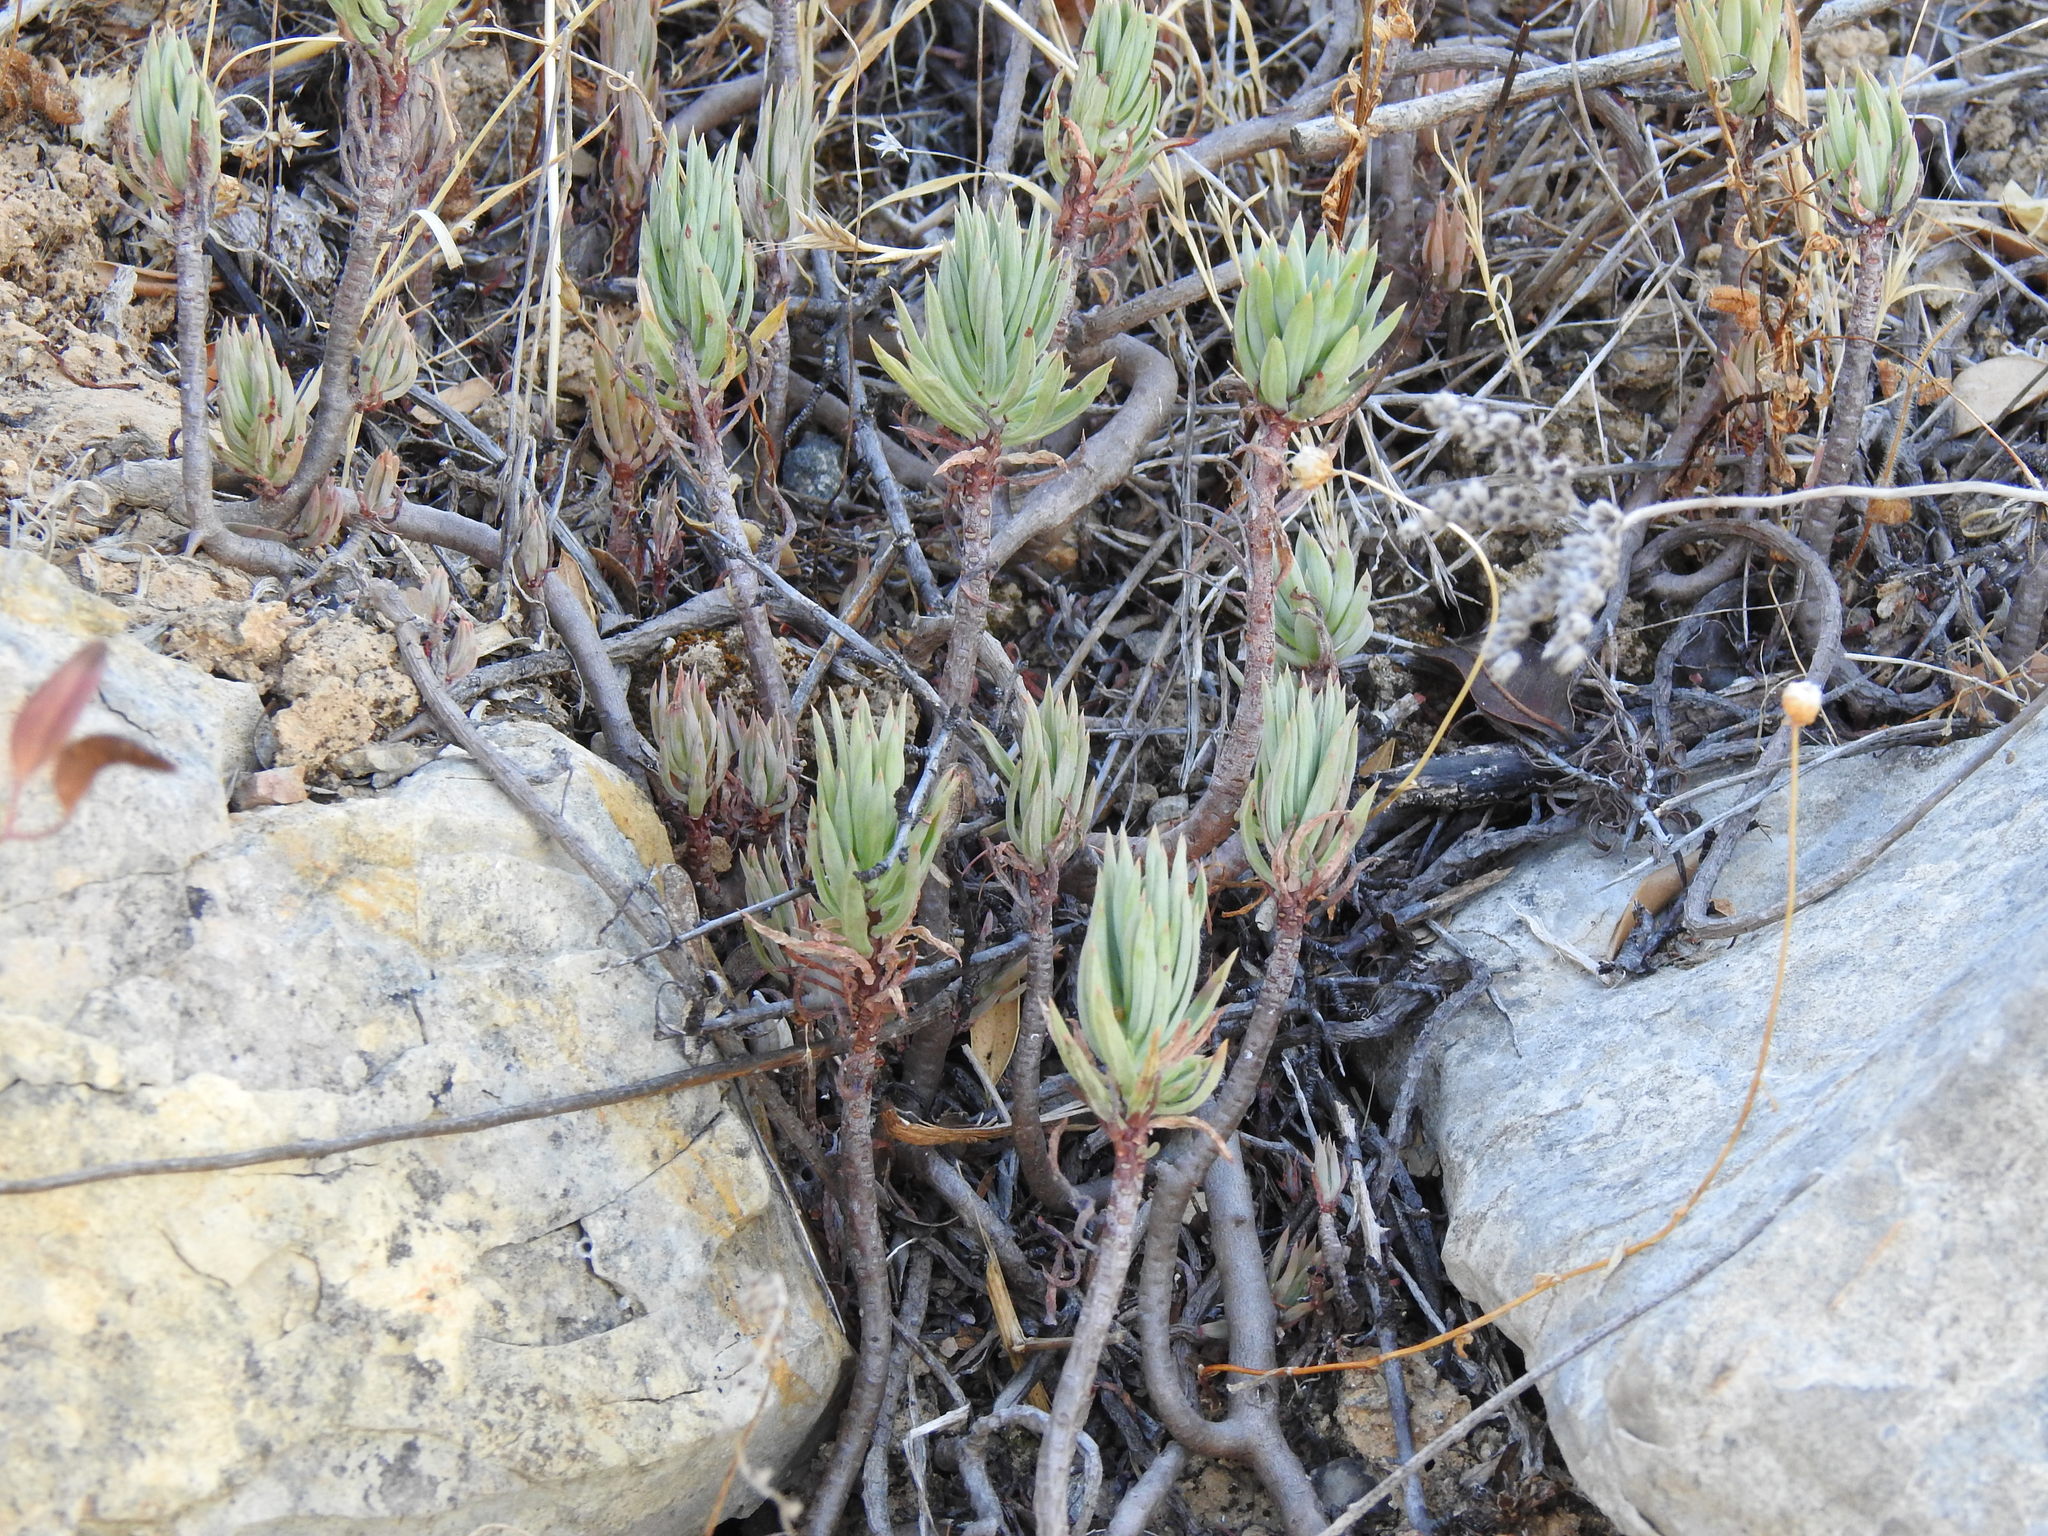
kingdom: Plantae
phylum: Tracheophyta
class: Magnoliopsida
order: Saxifragales
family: Crassulaceae
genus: Petrosedum
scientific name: Petrosedum sediforme
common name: Pale stonecrop
